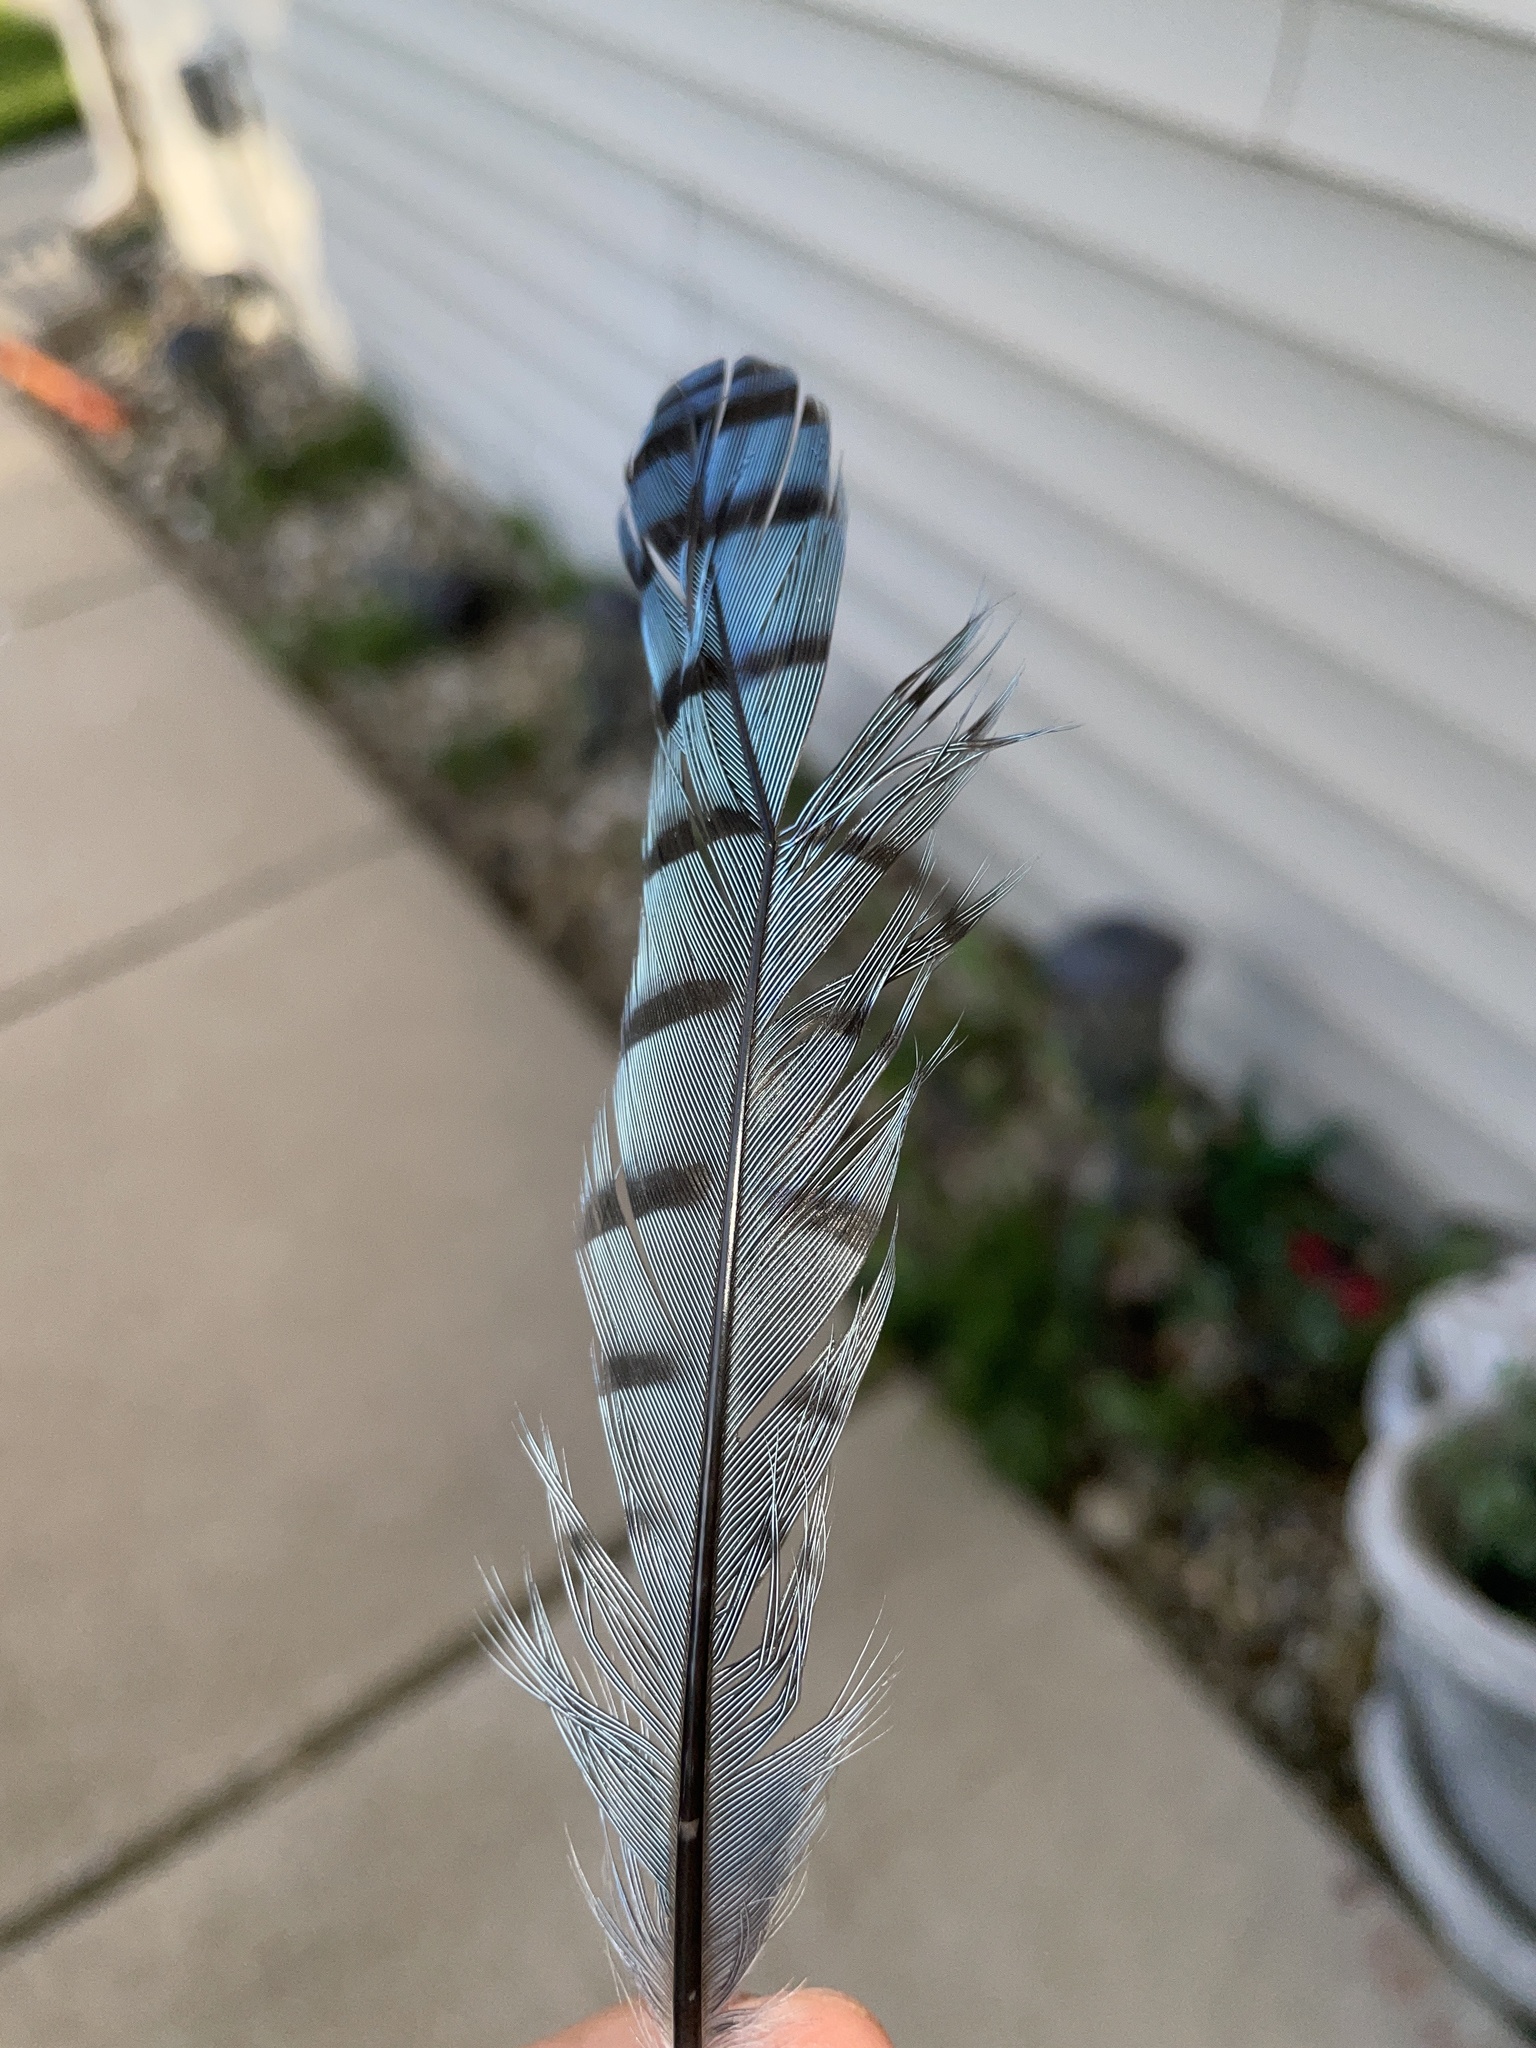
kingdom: Animalia
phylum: Chordata
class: Aves
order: Passeriformes
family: Corvidae
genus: Cyanocitta
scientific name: Cyanocitta cristata
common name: Blue jay
